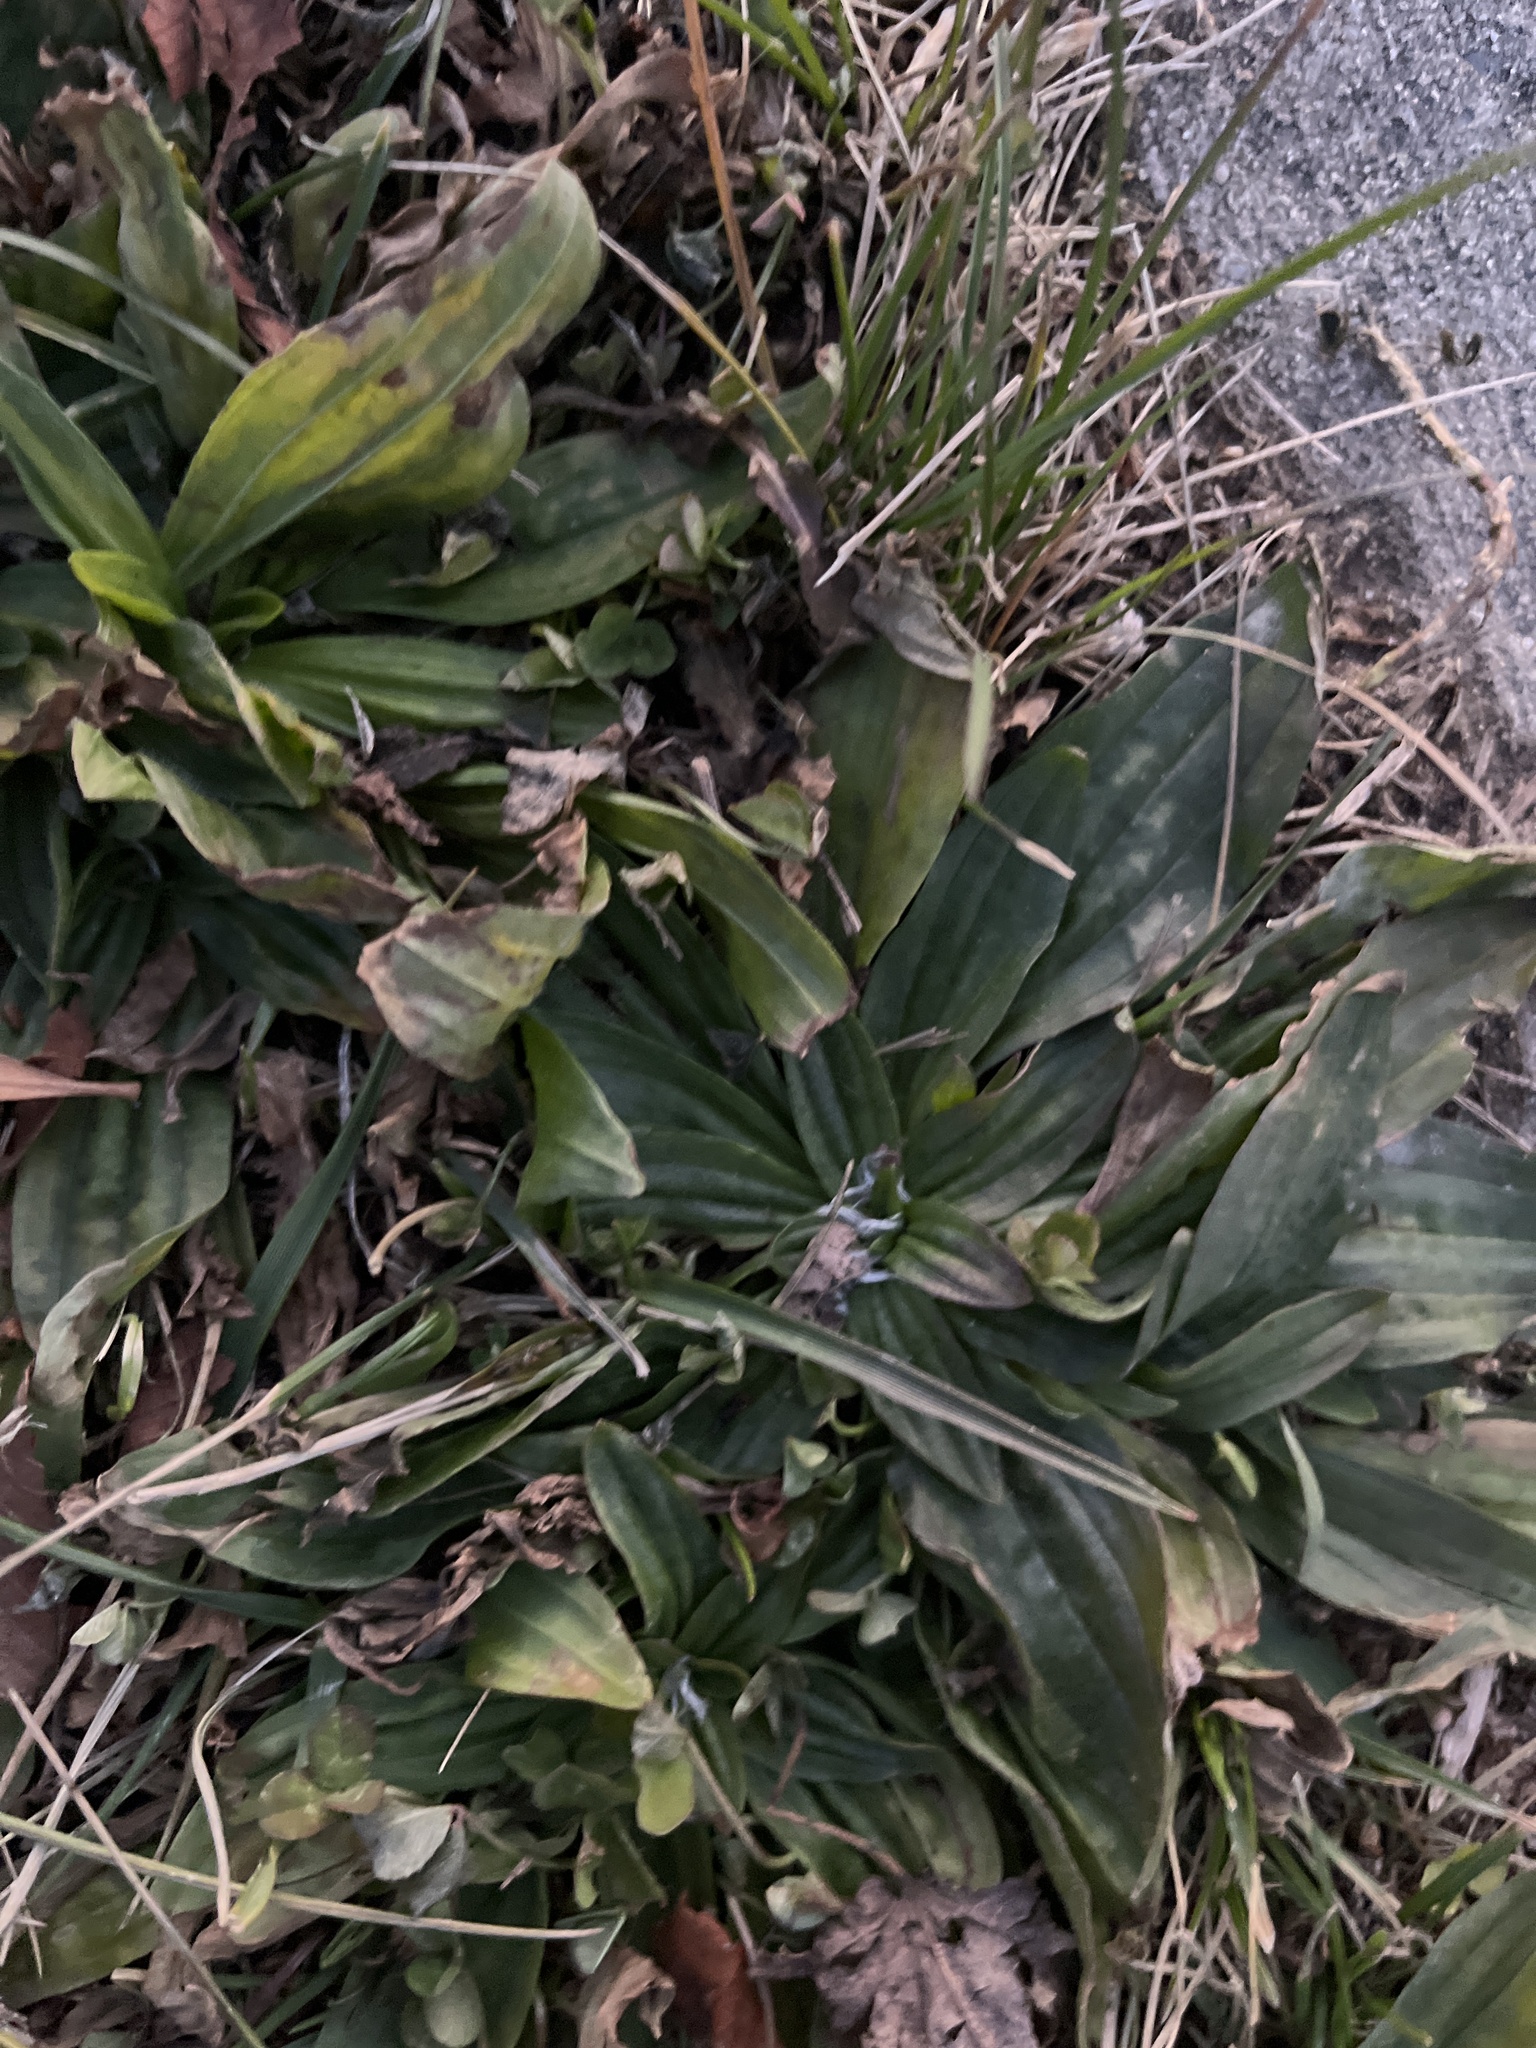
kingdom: Plantae
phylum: Tracheophyta
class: Magnoliopsida
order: Lamiales
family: Plantaginaceae
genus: Plantago
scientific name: Plantago lanceolata
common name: Ribwort plantain
